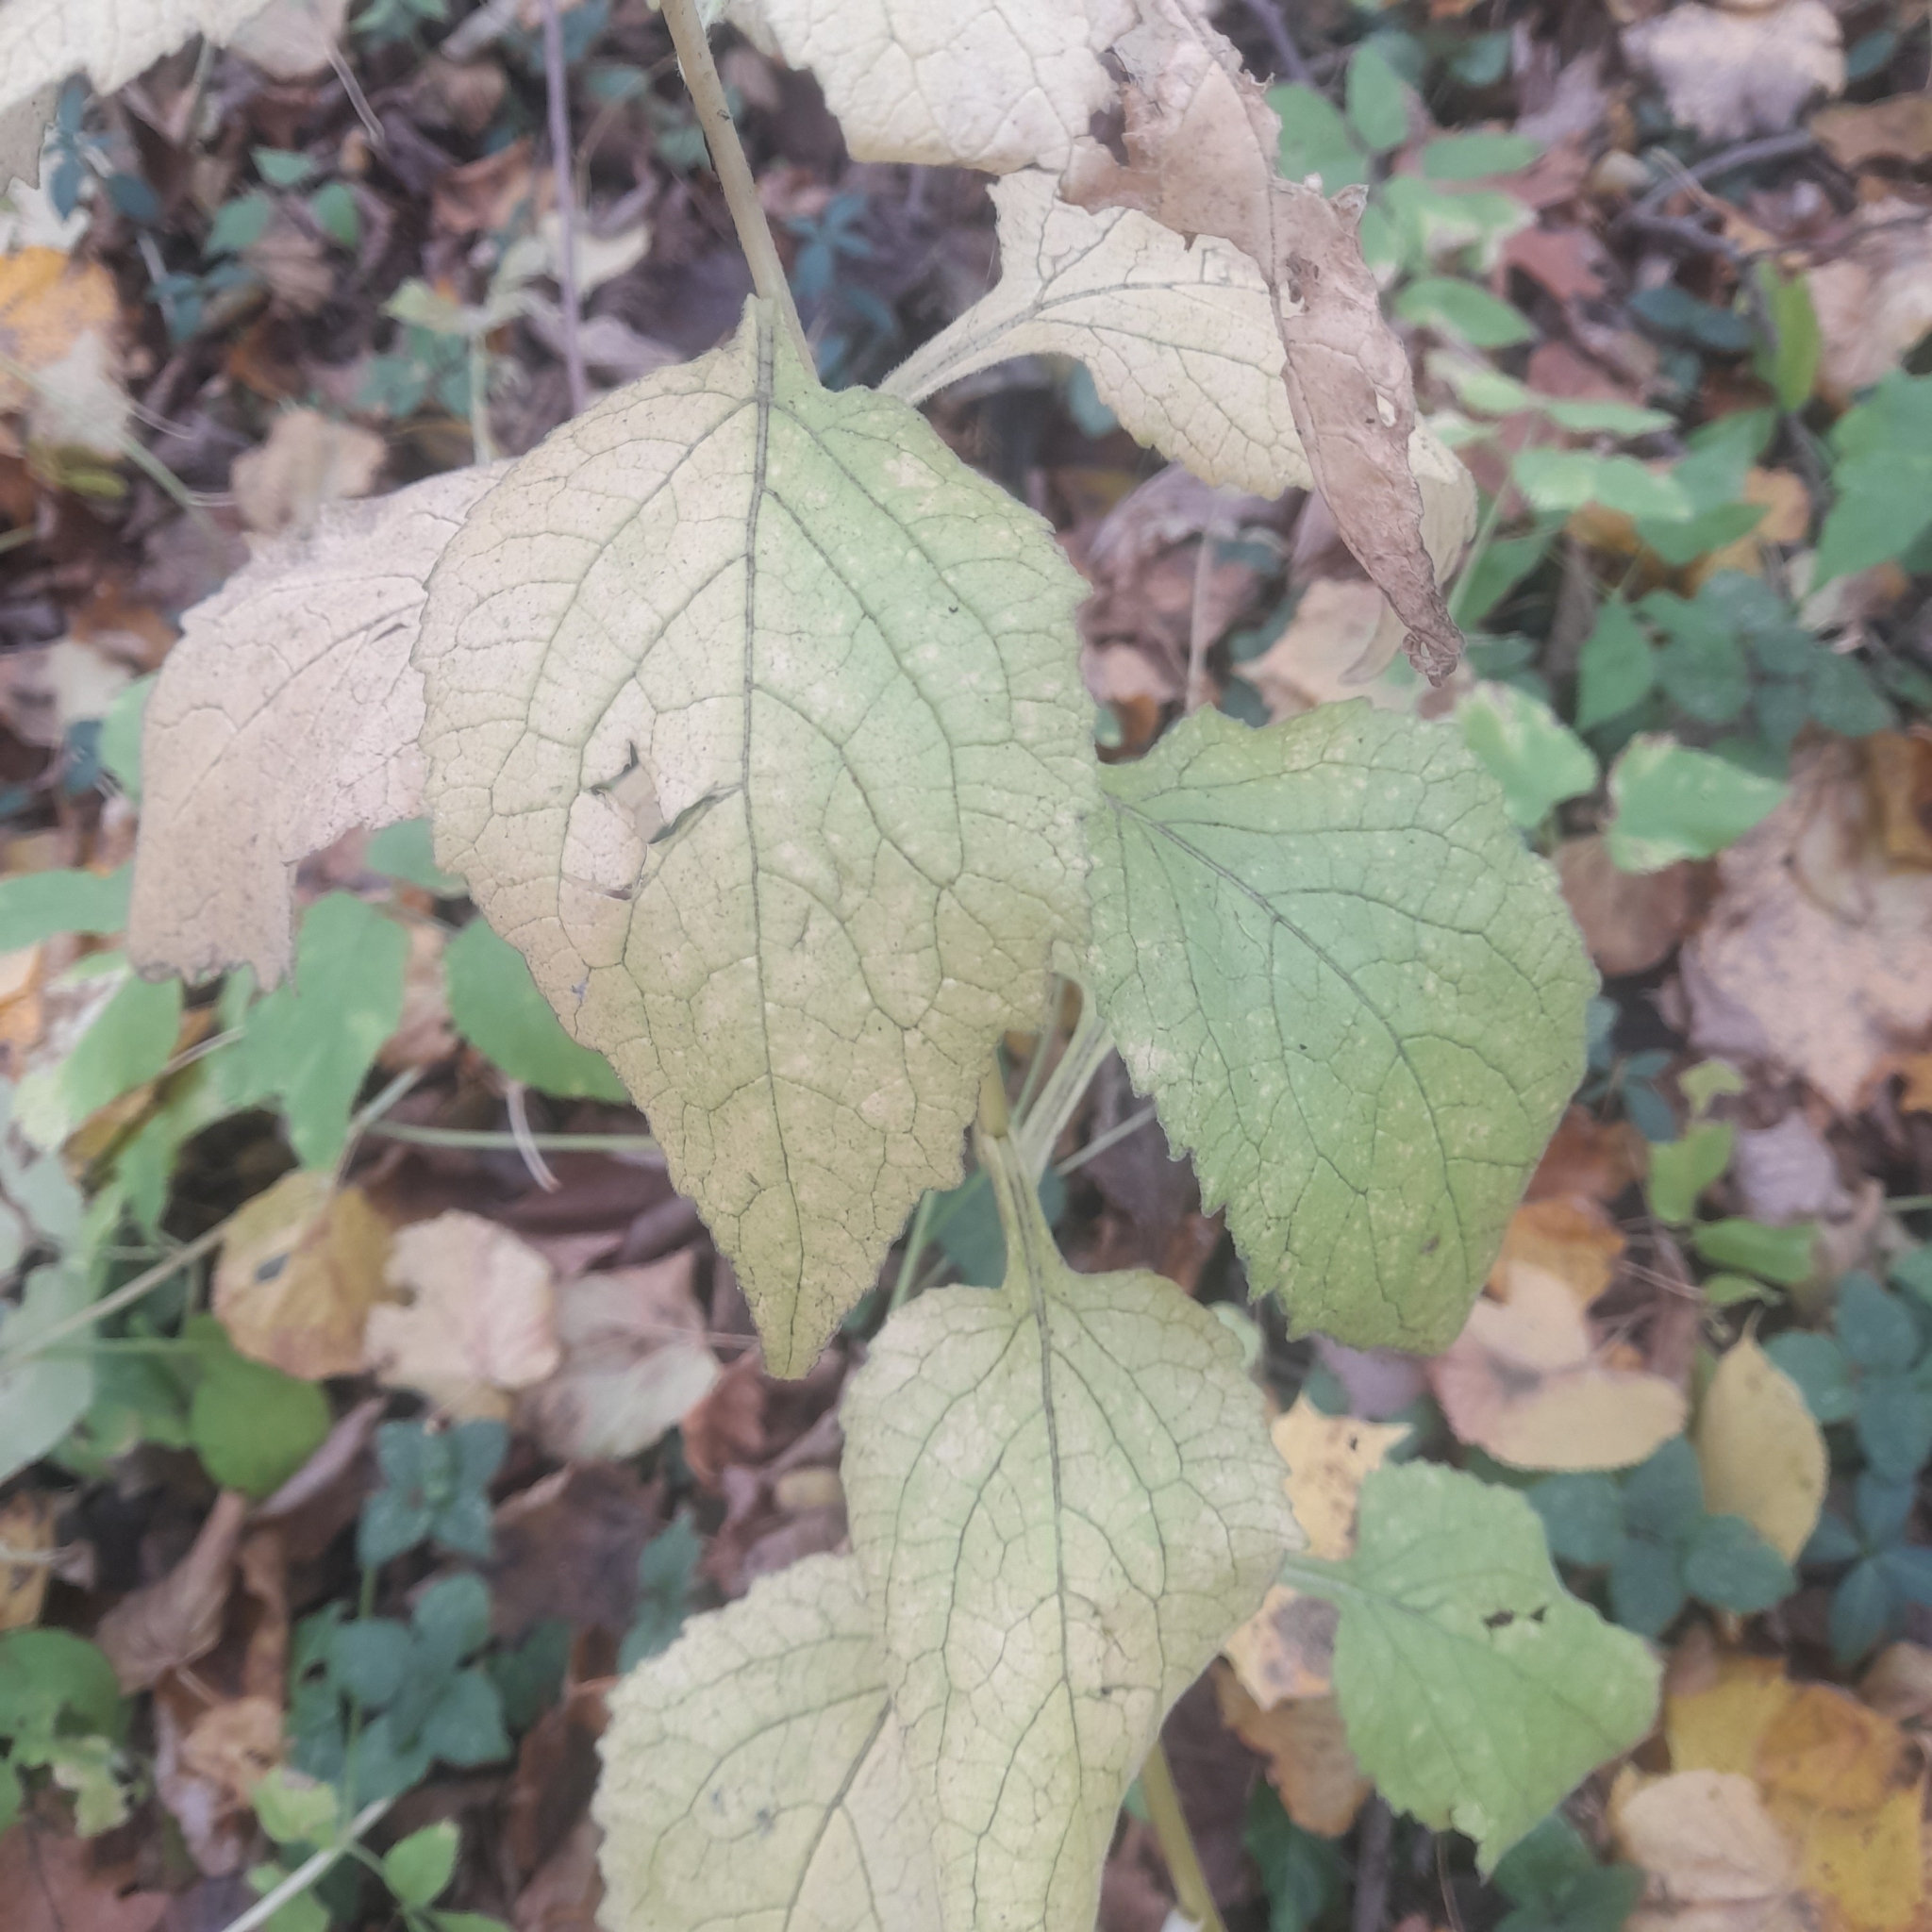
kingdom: Plantae
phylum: Tracheophyta
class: Magnoliopsida
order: Asterales
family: Campanulaceae
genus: Campanula
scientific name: Campanula latifolia
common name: Giant bellflower
